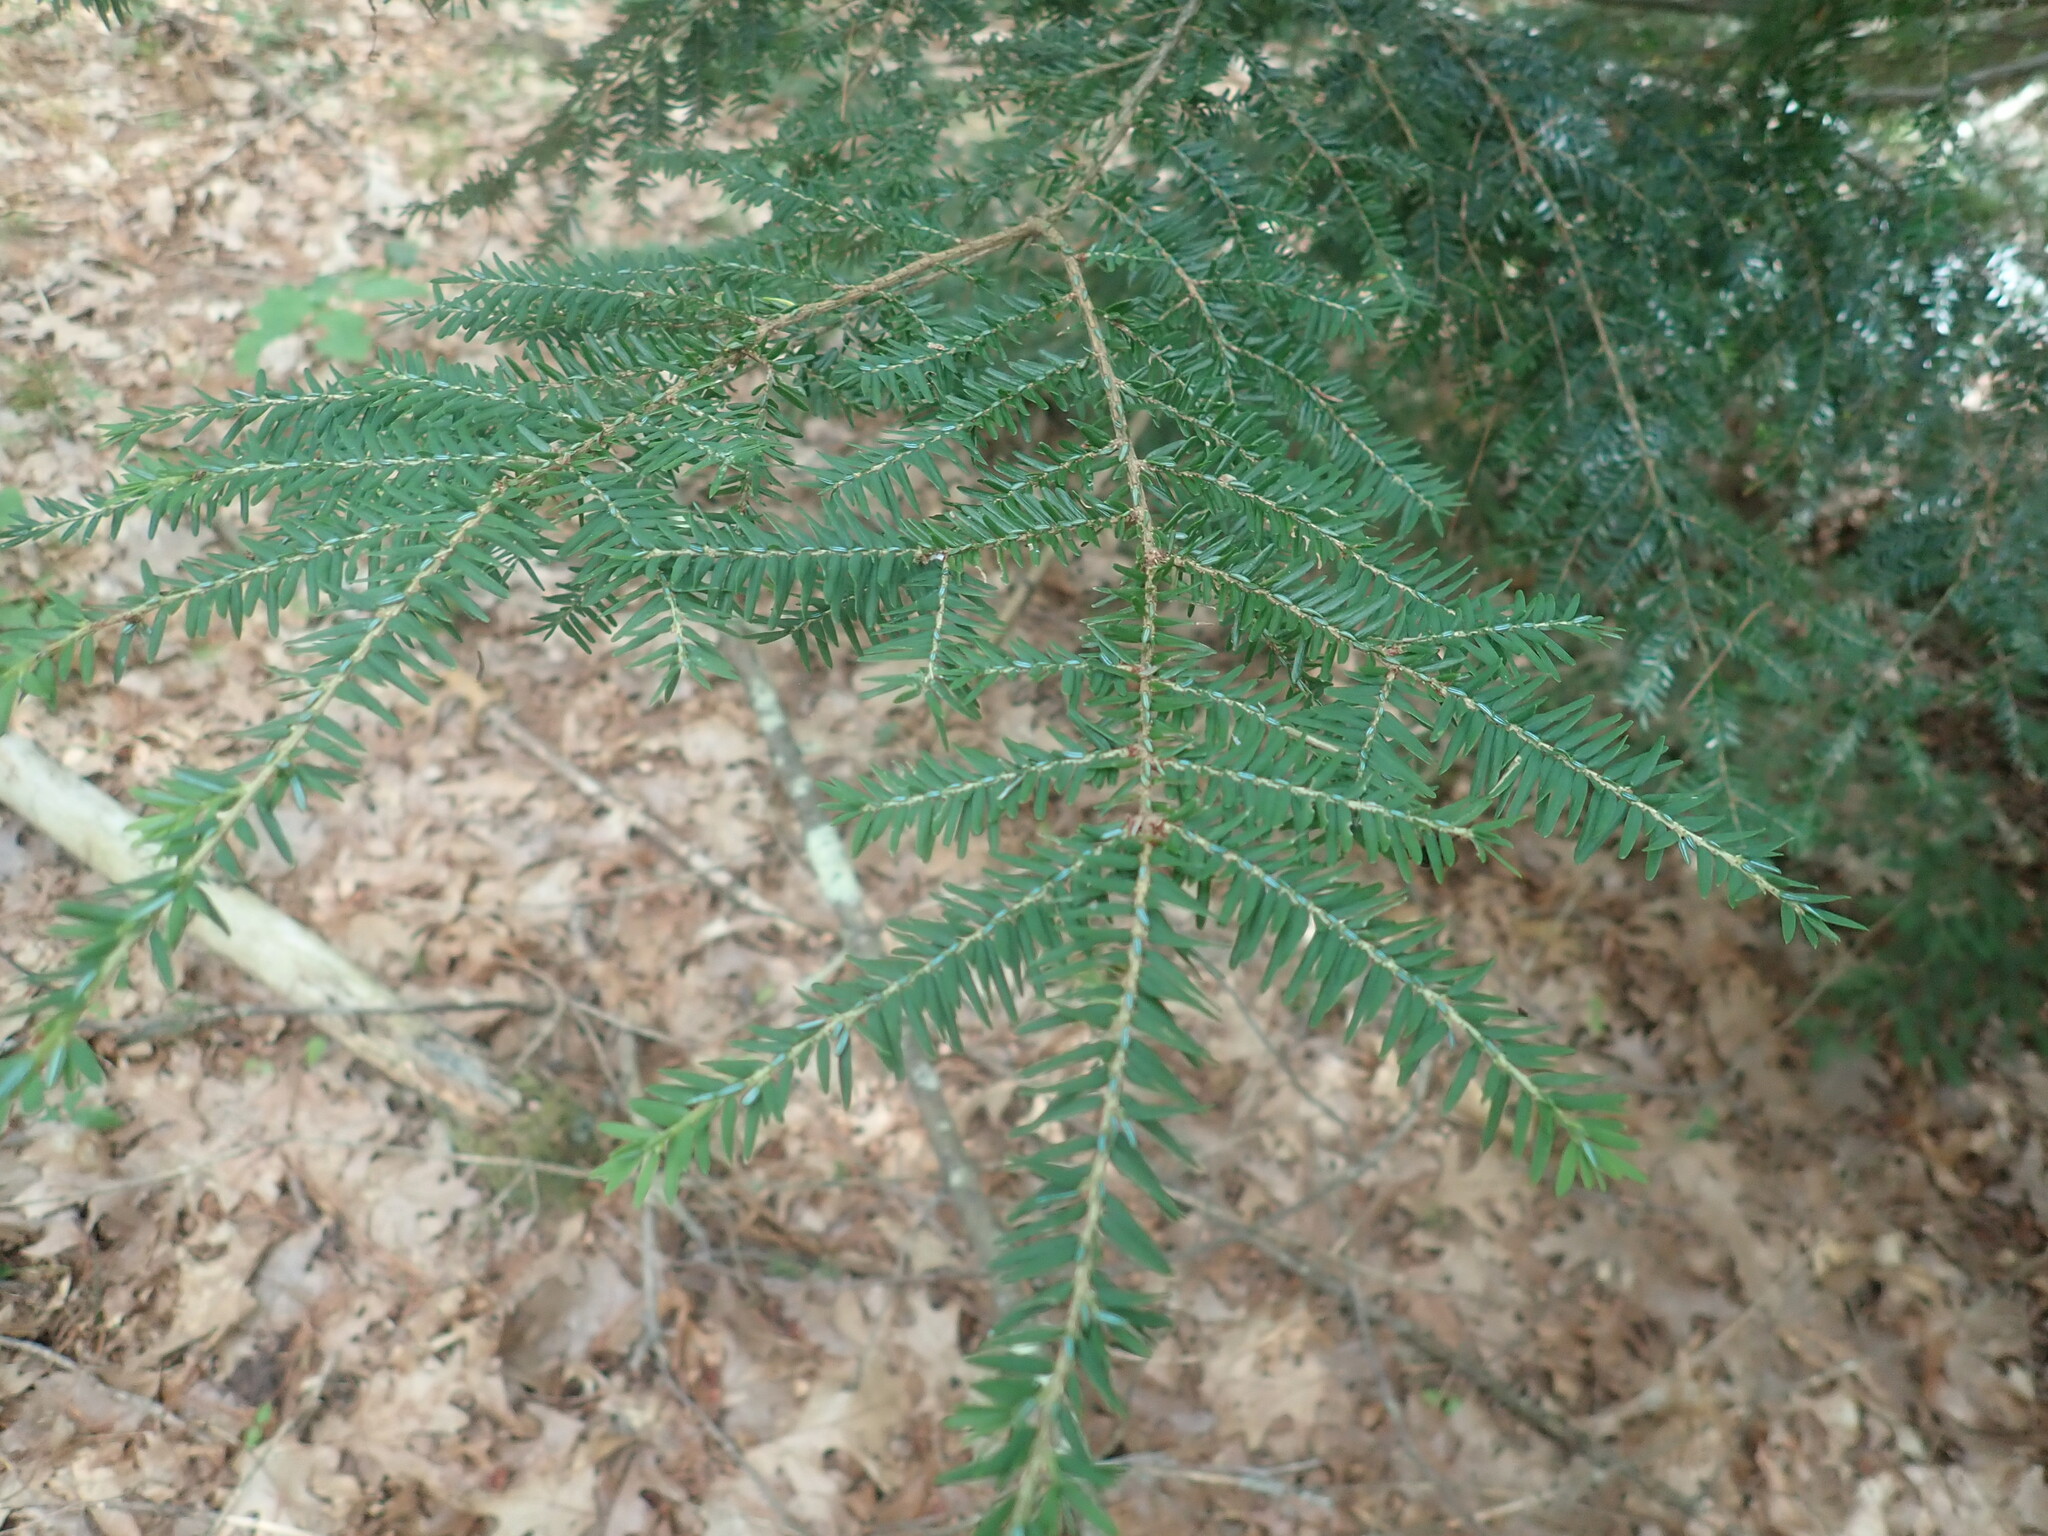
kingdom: Plantae
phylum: Tracheophyta
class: Pinopsida
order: Pinales
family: Pinaceae
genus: Tsuga
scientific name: Tsuga canadensis
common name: Eastern hemlock
